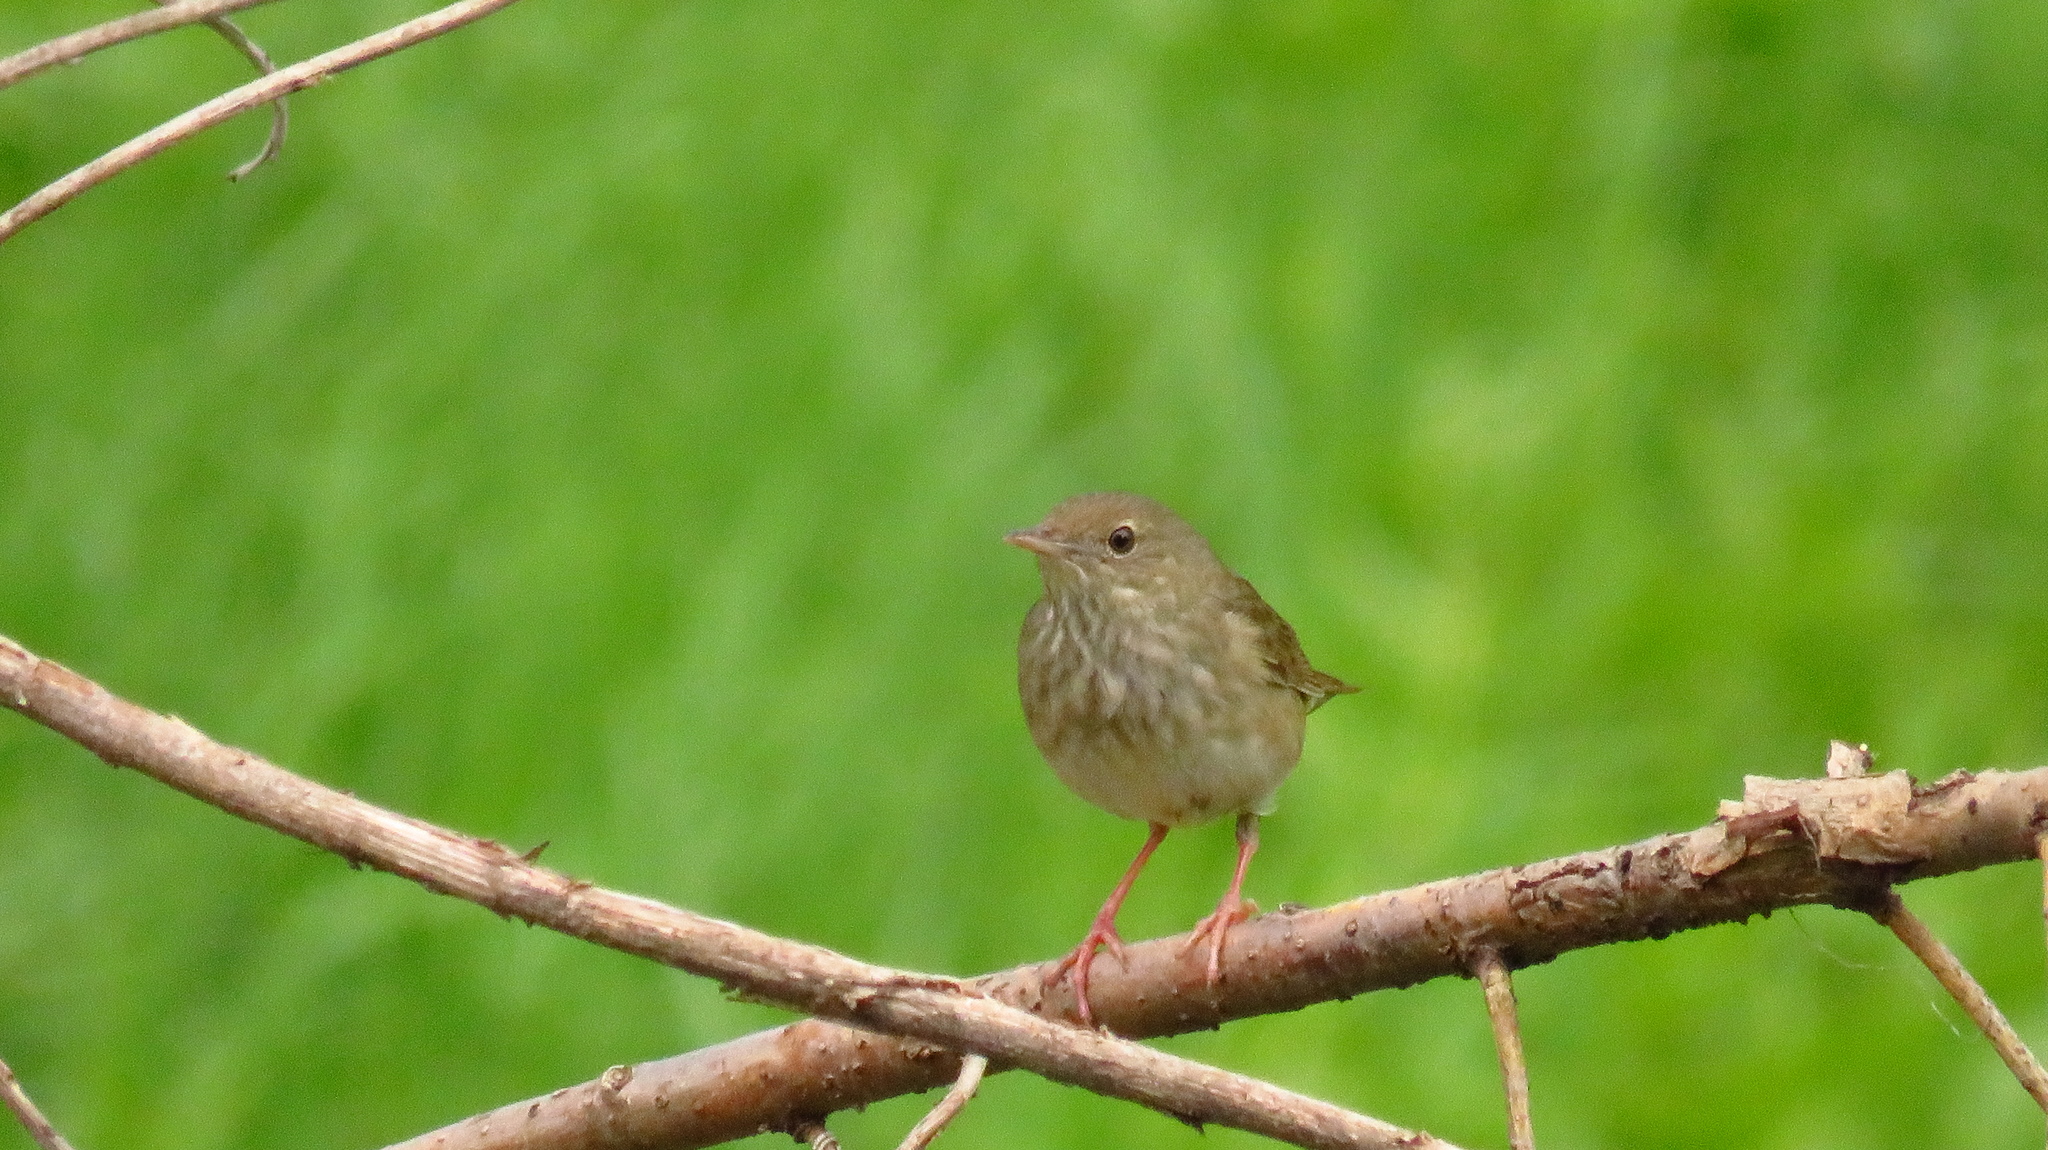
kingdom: Animalia
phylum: Chordata
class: Aves
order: Passeriformes
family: Locustellidae
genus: Locustella
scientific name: Locustella fluviatilis
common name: River warbler
